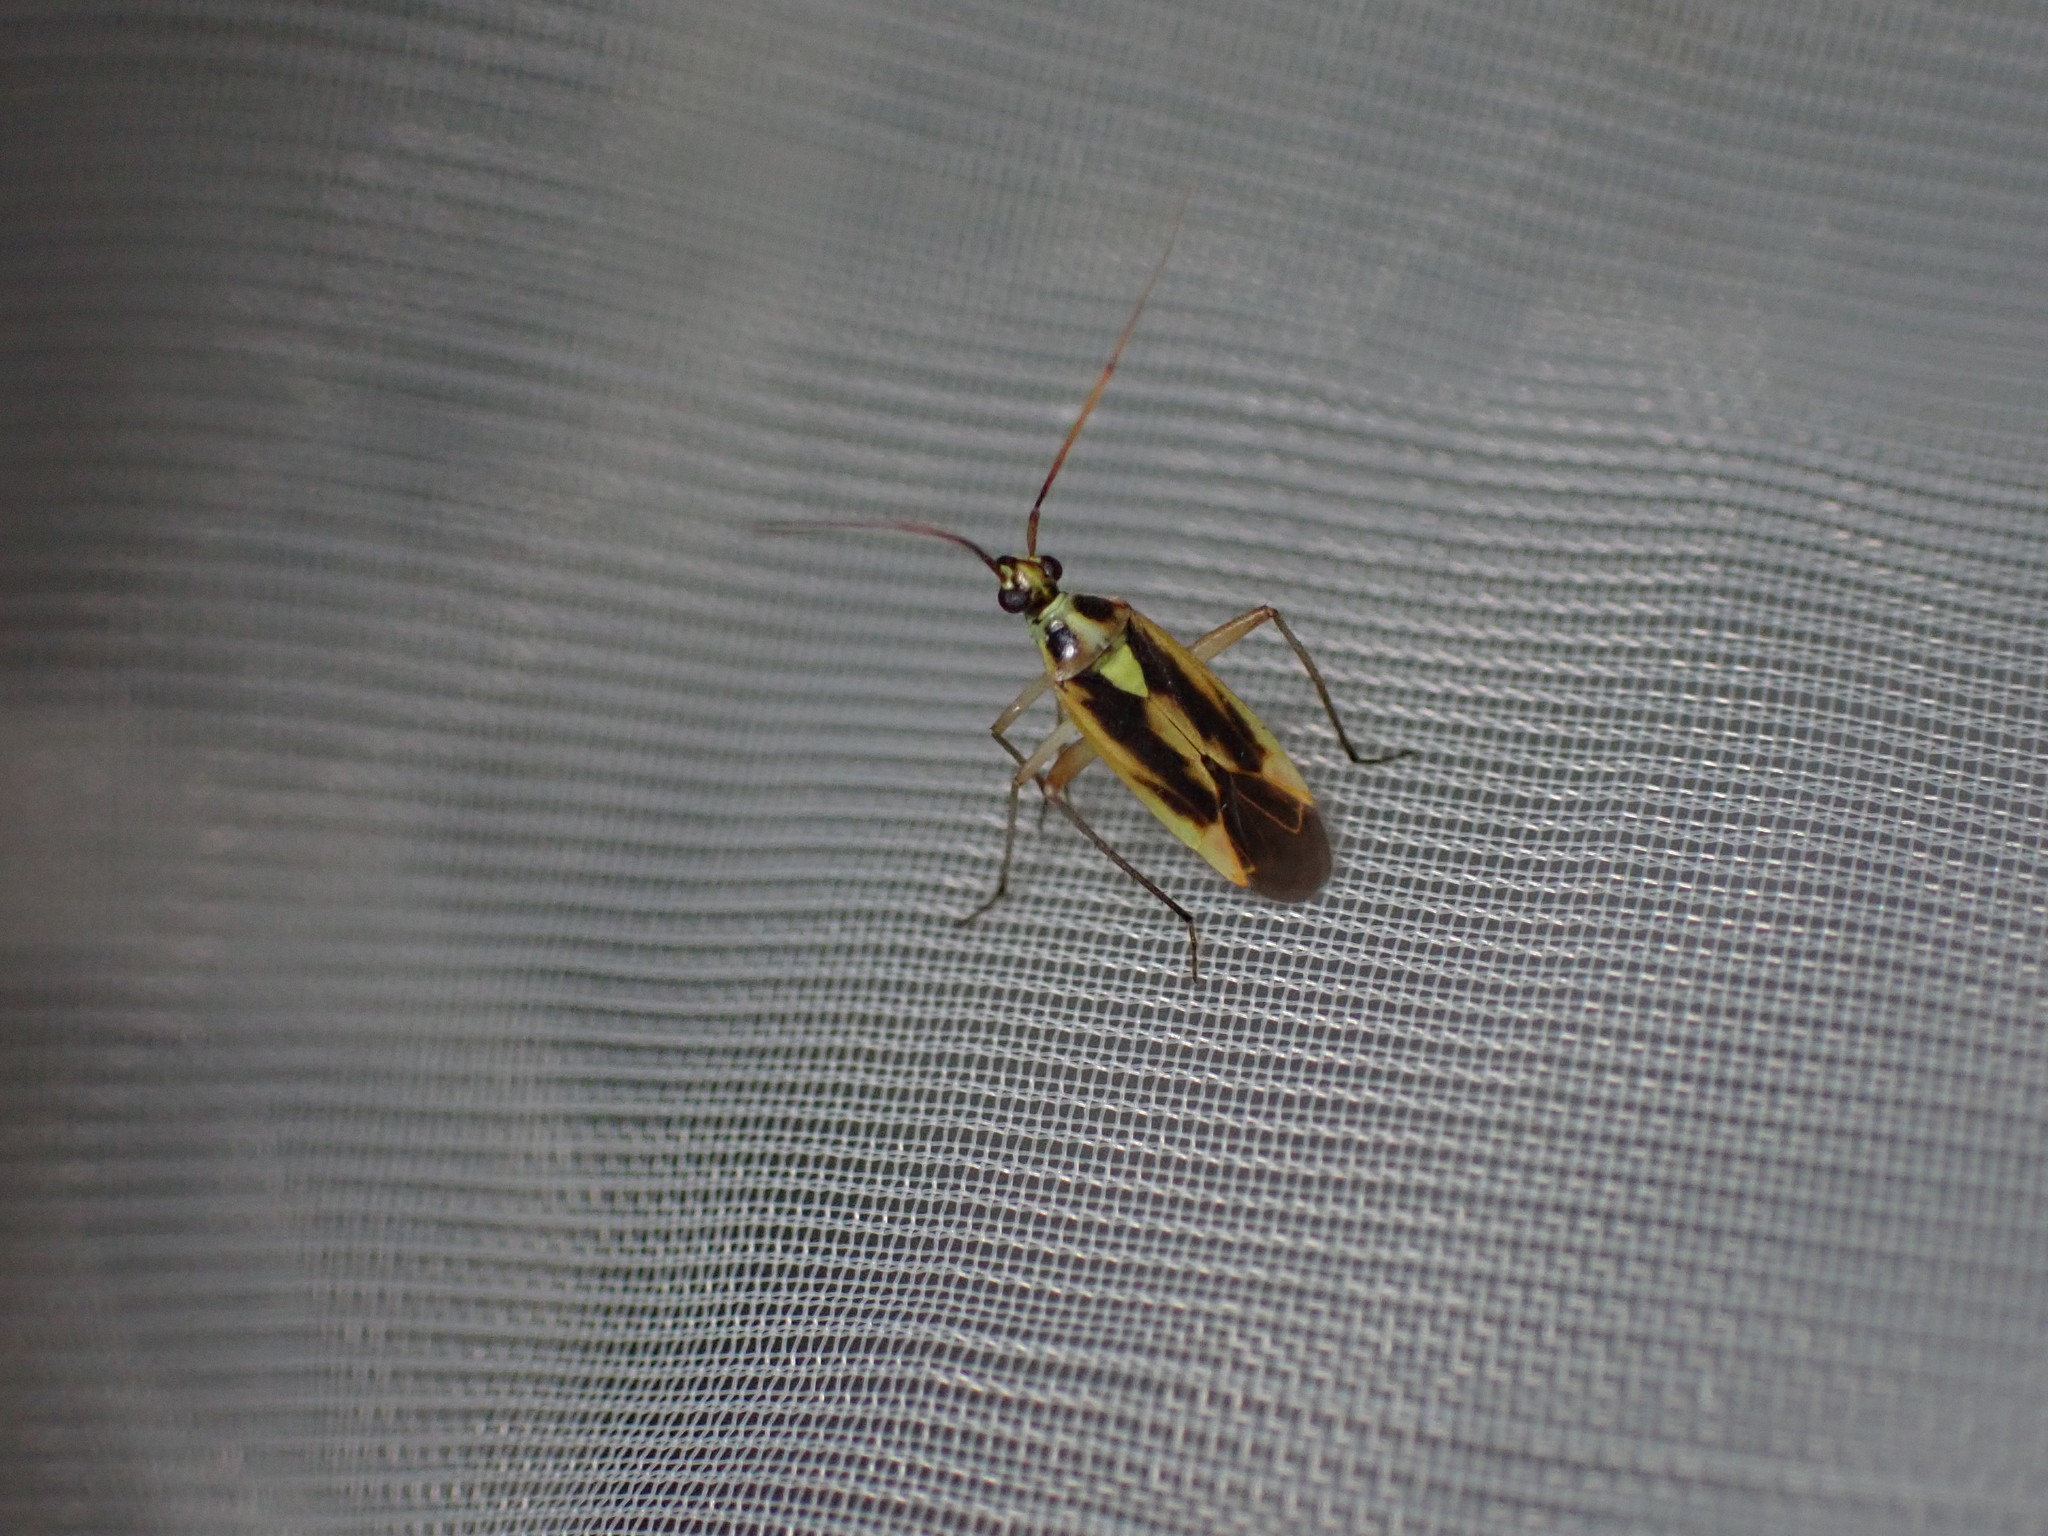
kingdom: Animalia
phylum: Arthropoda
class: Insecta
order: Hemiptera
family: Miridae
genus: Stenotus
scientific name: Stenotus binotatus
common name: Plant bug
